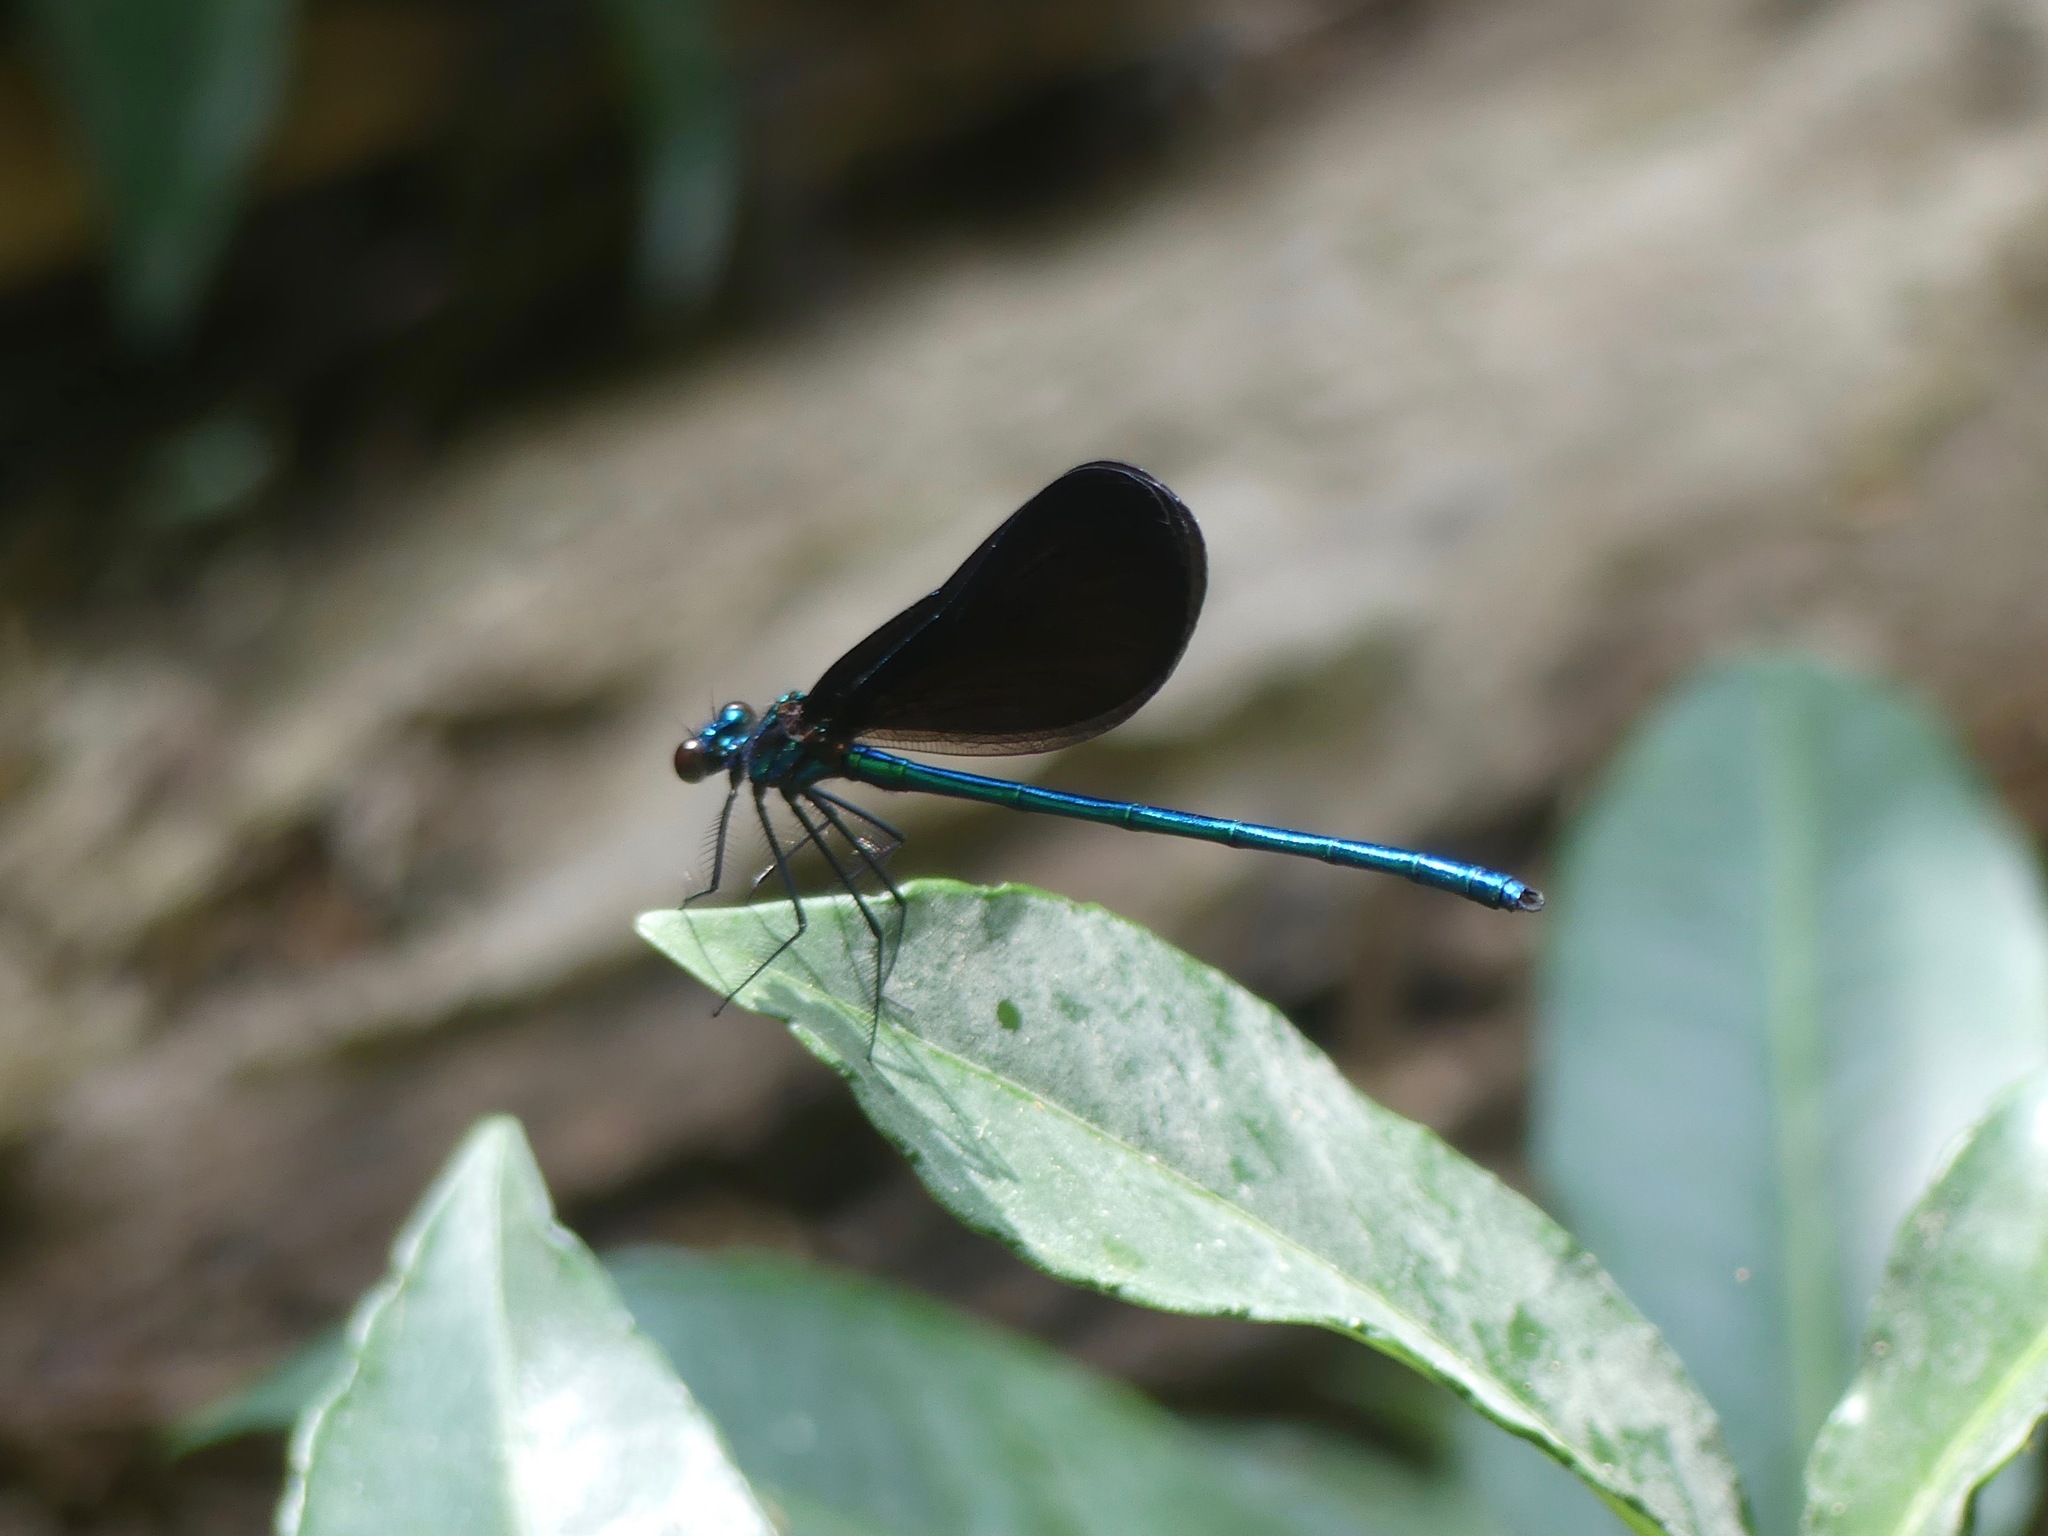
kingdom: Animalia
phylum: Arthropoda
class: Insecta
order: Odonata
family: Calopterygidae
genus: Calopteryx
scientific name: Calopteryx maculata
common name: Ebony jewelwing
